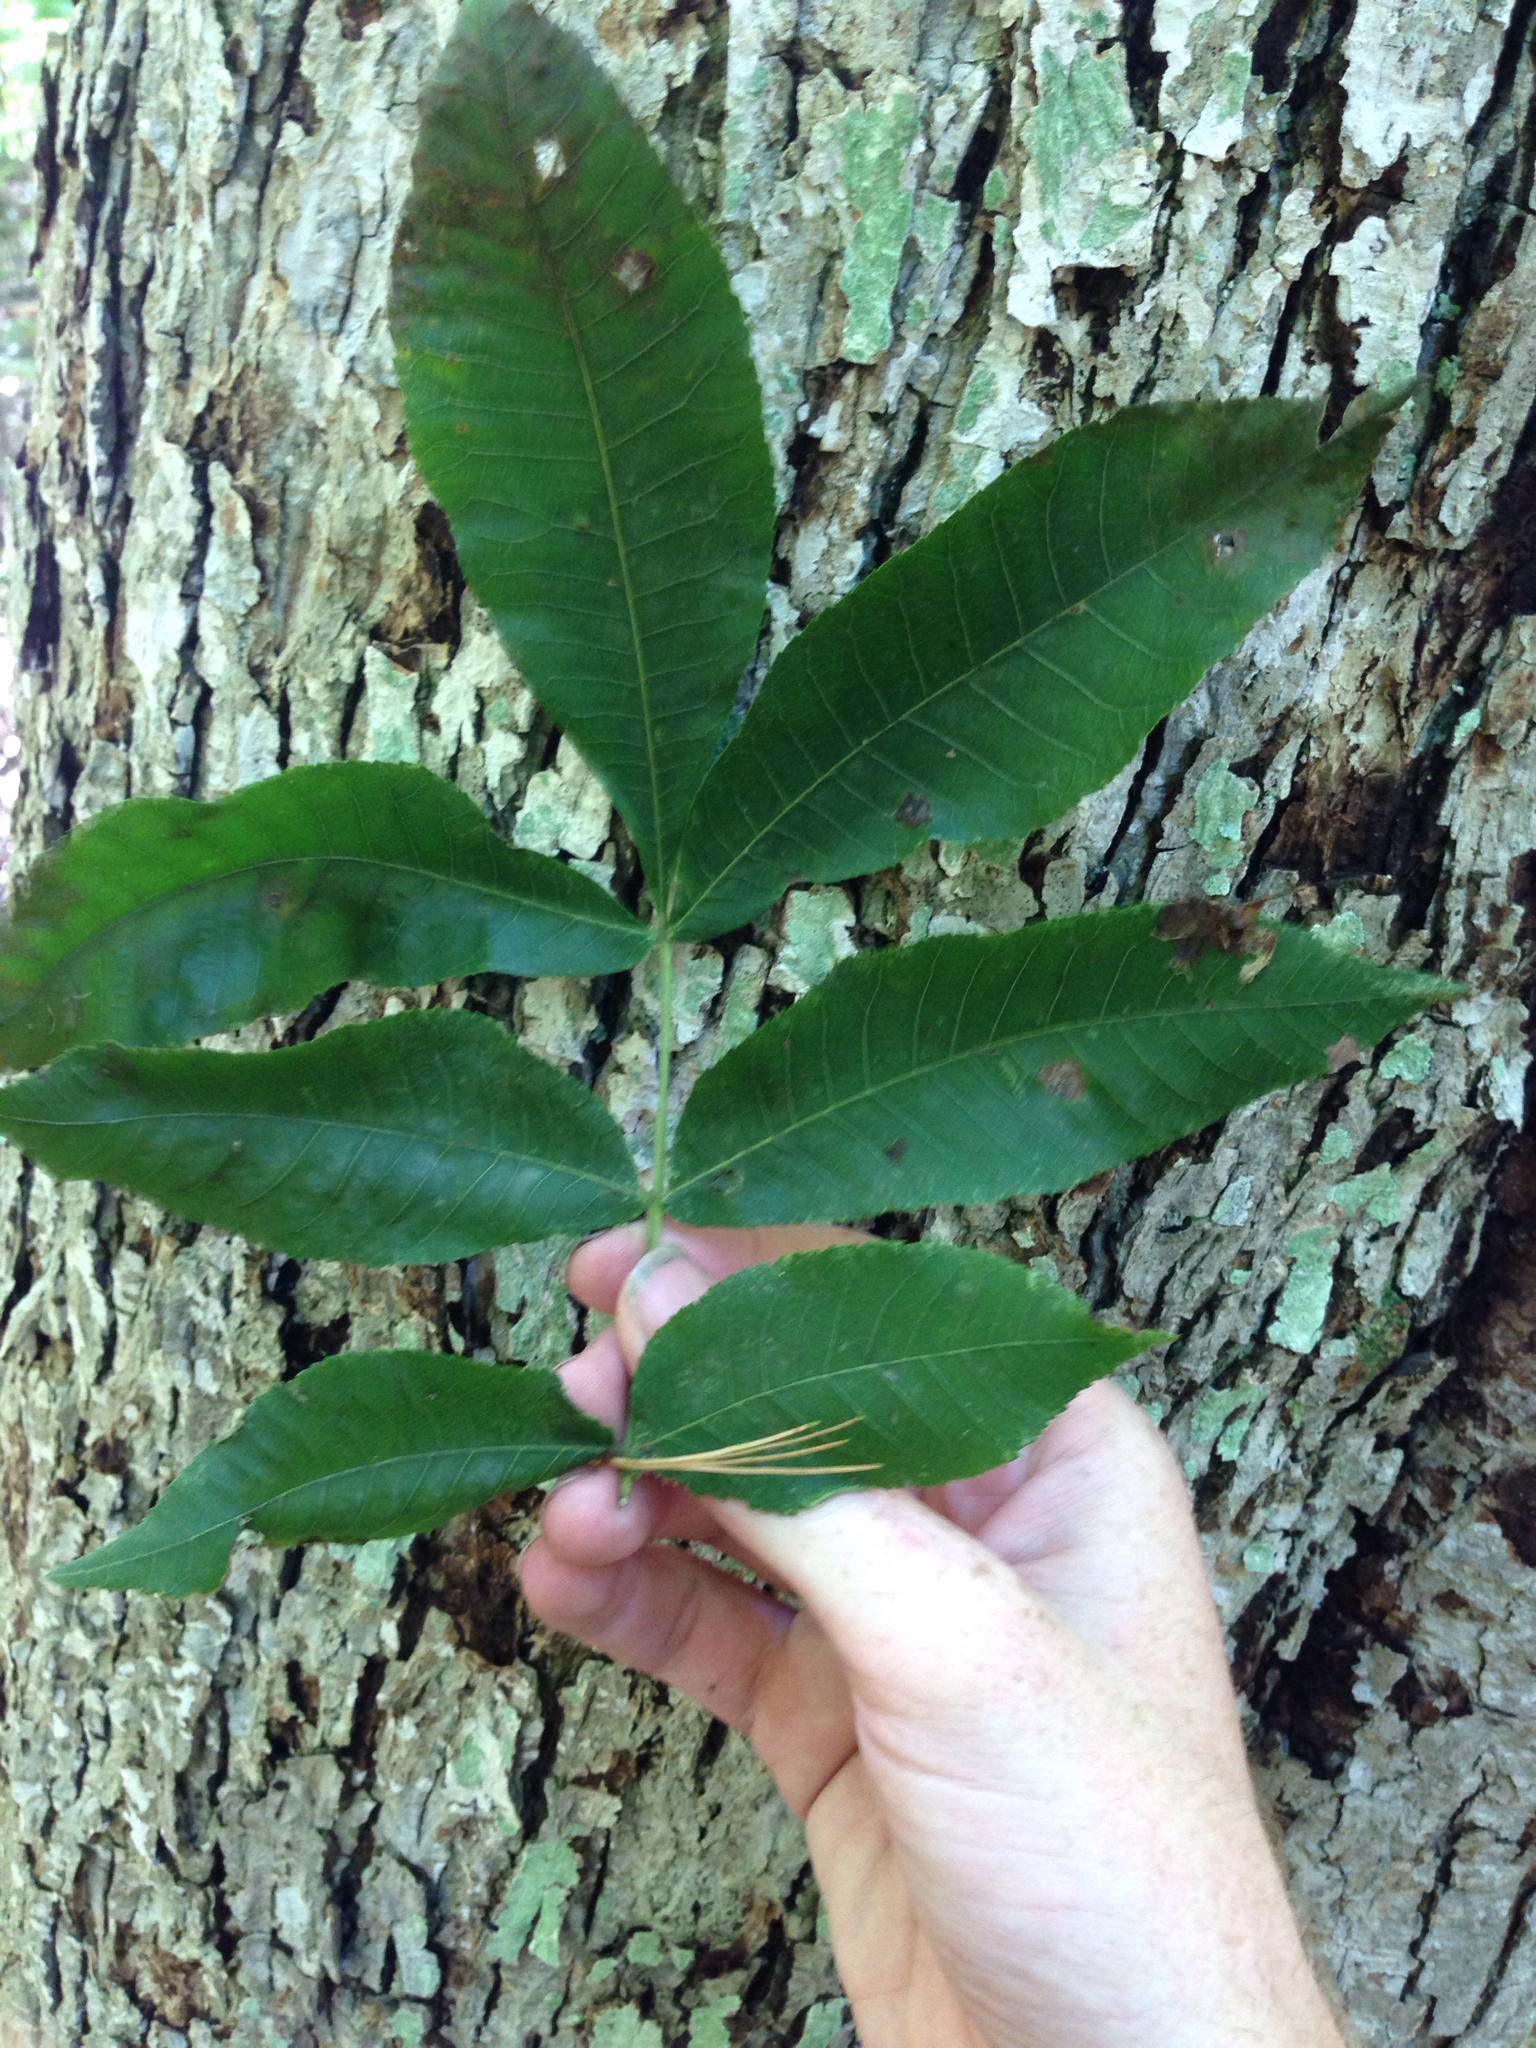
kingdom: Plantae
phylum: Tracheophyta
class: Magnoliopsida
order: Fagales
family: Juglandaceae
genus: Carya
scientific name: Carya cordiformis
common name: Bitternut hickory
